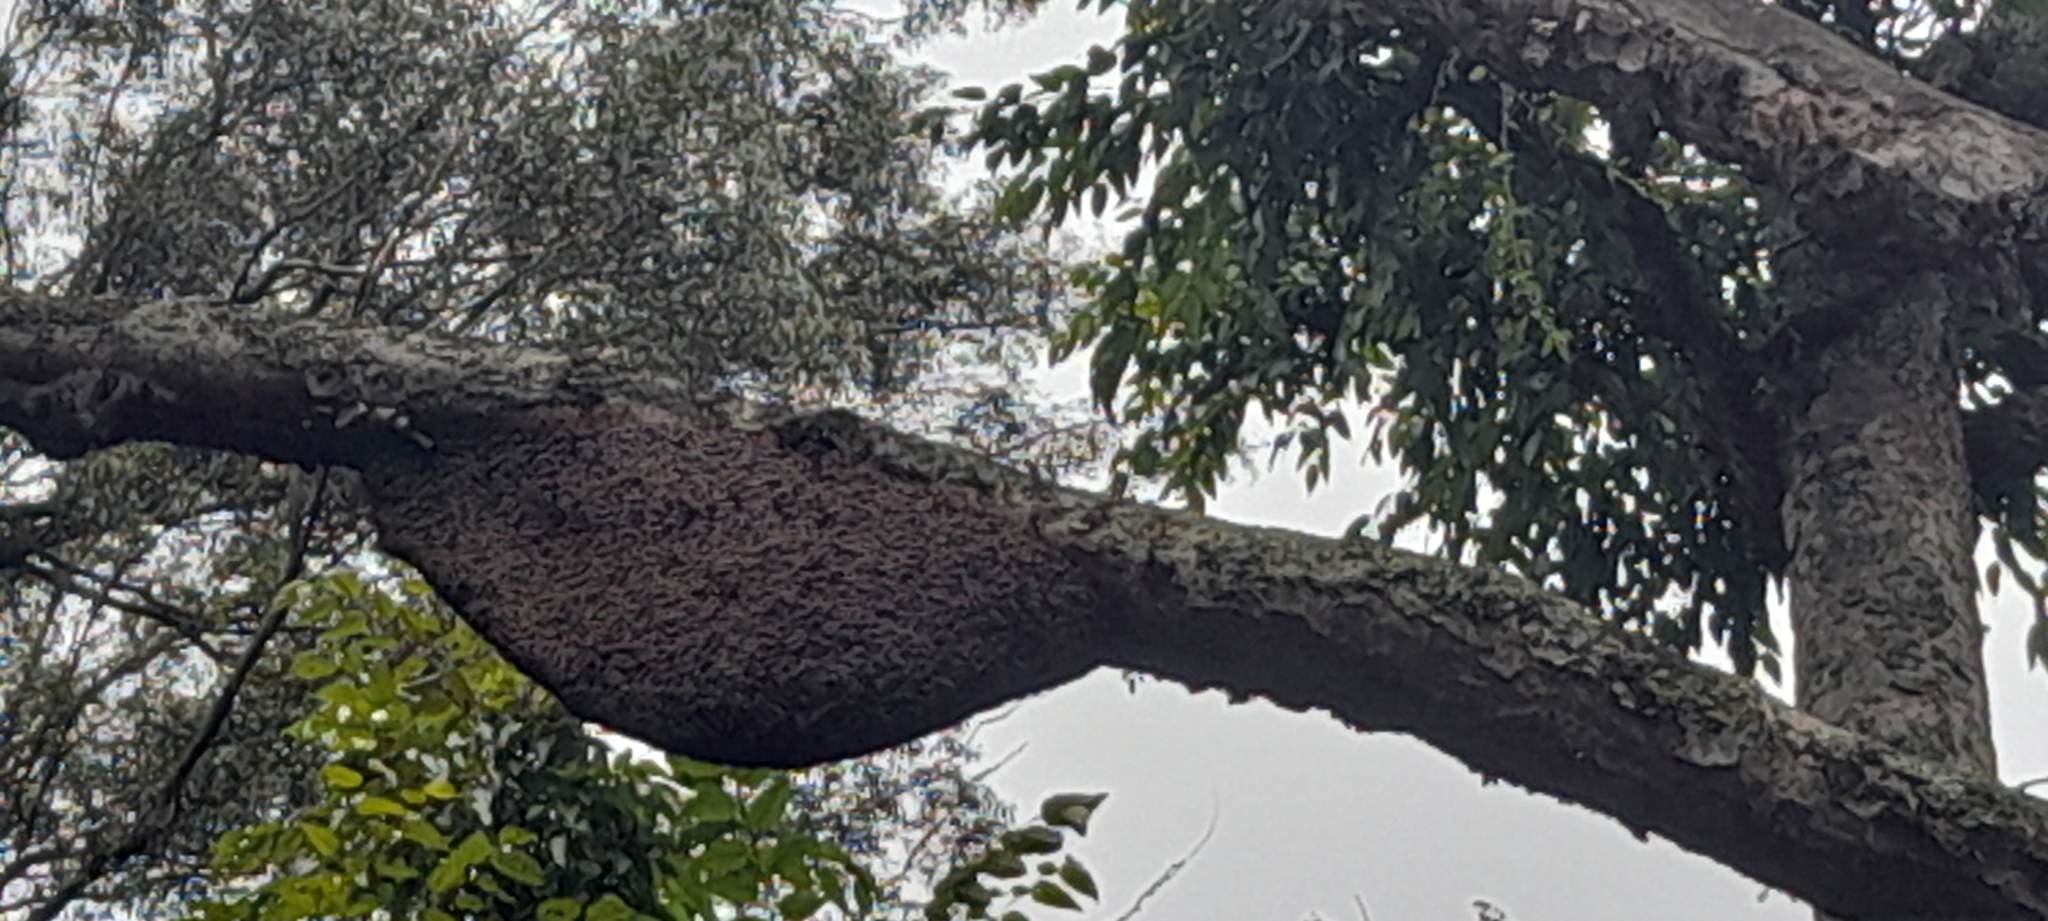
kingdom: Animalia
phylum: Arthropoda
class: Insecta
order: Hymenoptera
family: Apidae
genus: Apis
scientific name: Apis dorsata
